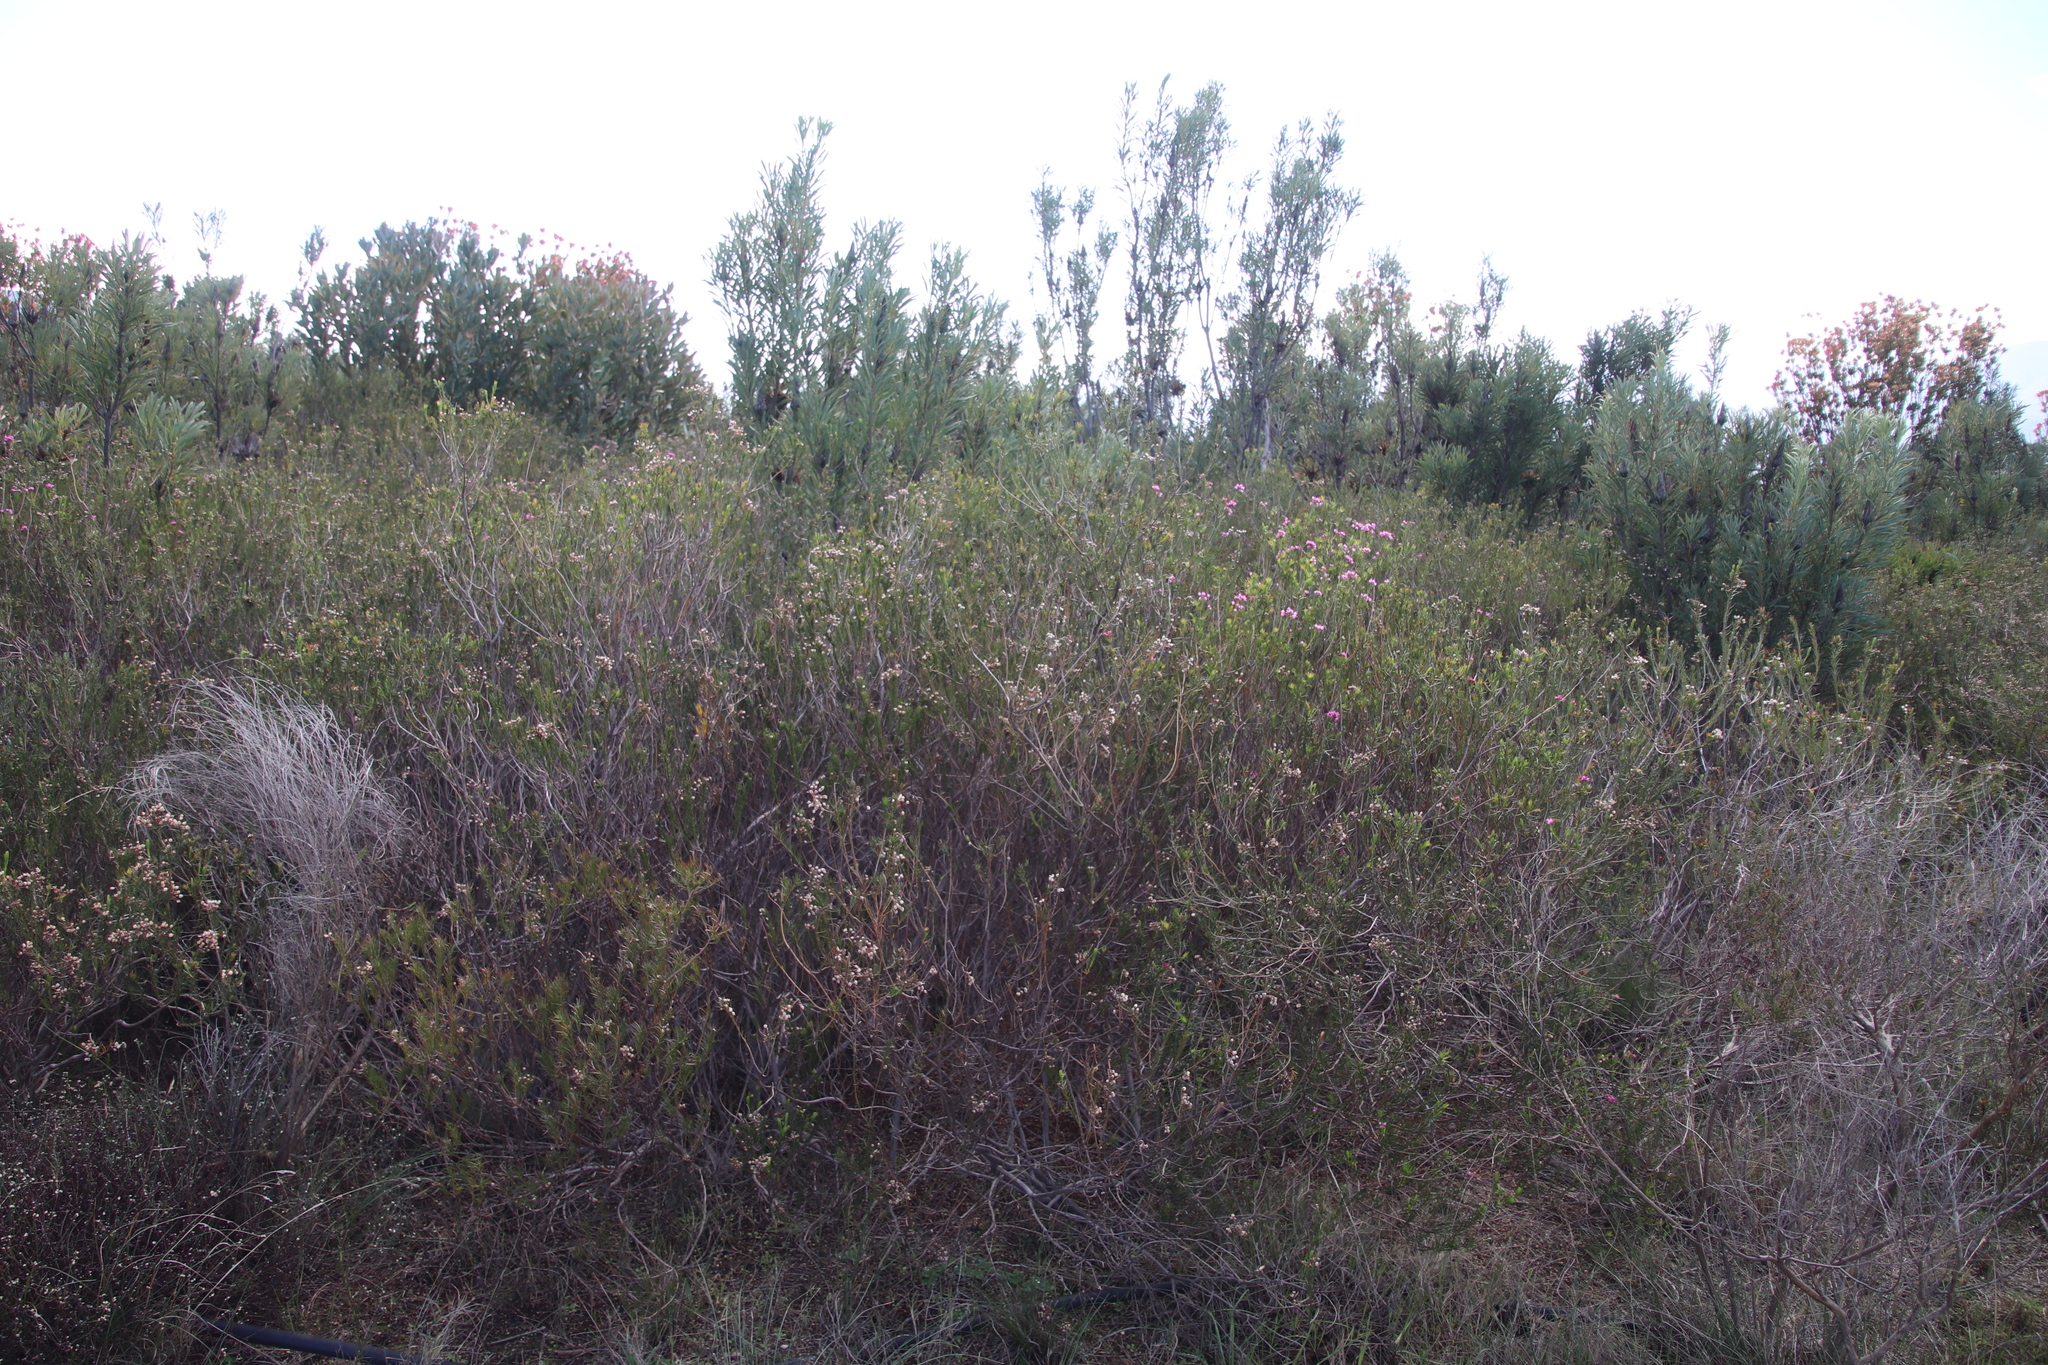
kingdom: Plantae
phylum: Tracheophyta
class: Magnoliopsida
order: Ericales
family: Ericaceae
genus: Erica
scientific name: Erica inflata
